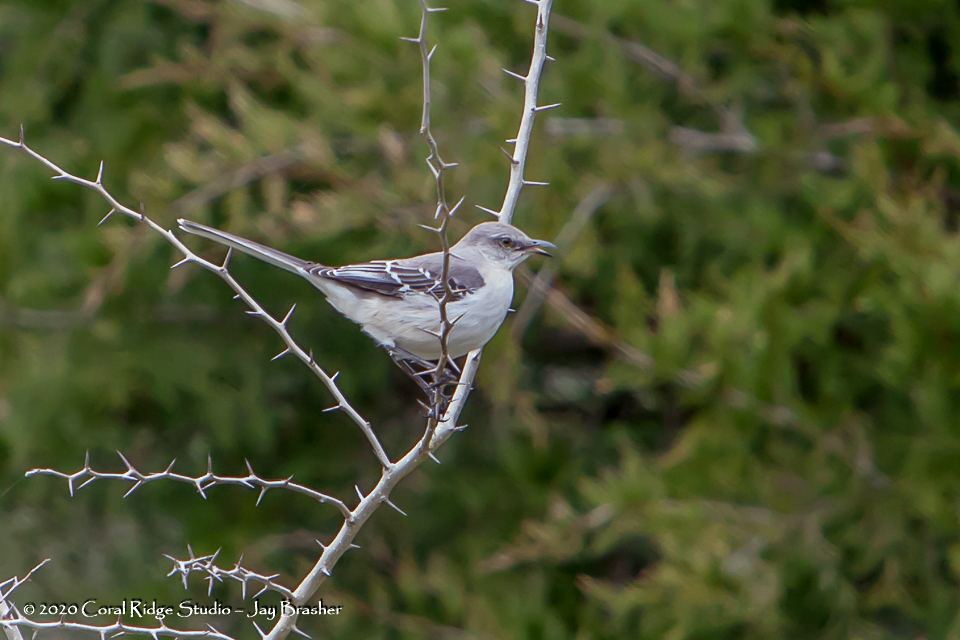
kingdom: Animalia
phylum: Chordata
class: Aves
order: Passeriformes
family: Mimidae
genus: Mimus
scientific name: Mimus polyglottos
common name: Northern mockingbird
